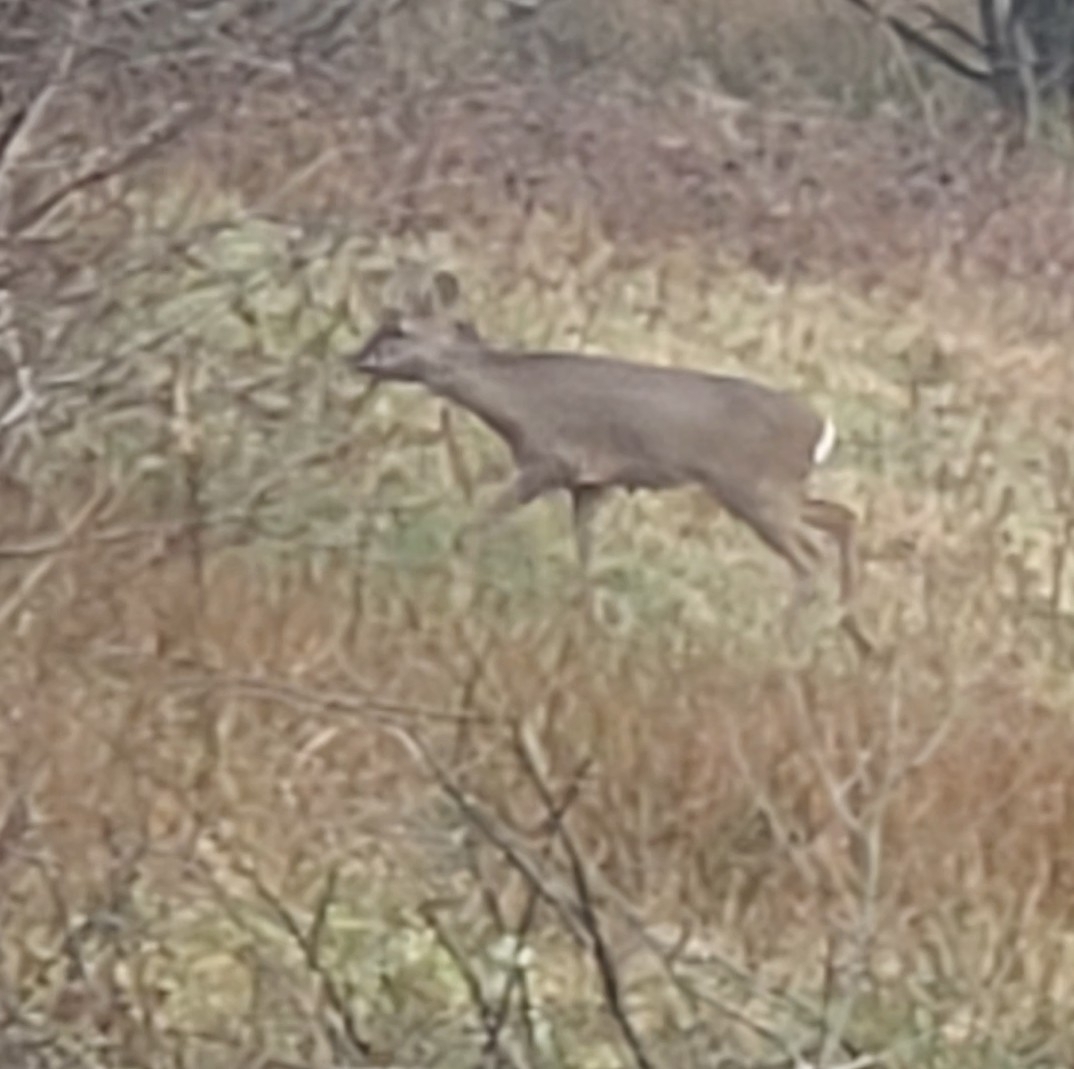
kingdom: Animalia
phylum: Chordata
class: Mammalia
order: Artiodactyla
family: Cervidae
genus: Capreolus
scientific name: Capreolus capreolus
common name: Western roe deer
